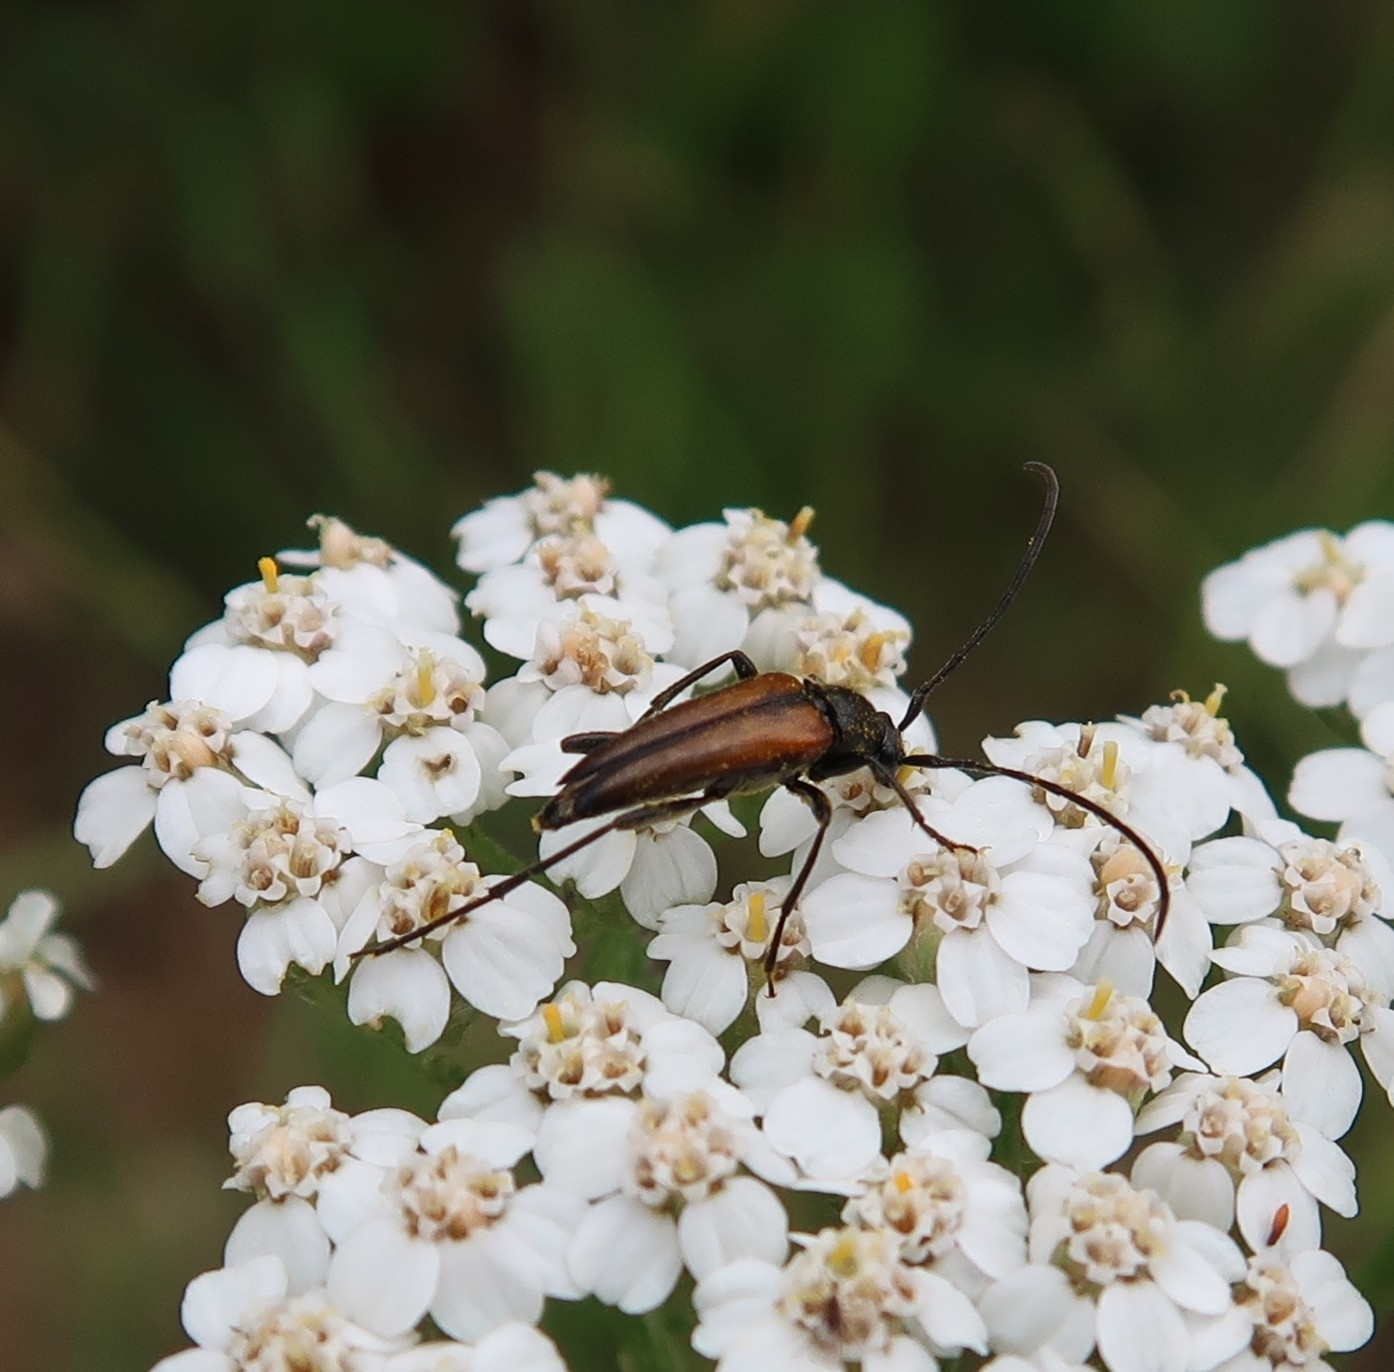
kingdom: Animalia
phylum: Arthropoda
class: Insecta
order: Coleoptera
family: Cerambycidae
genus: Stenurella
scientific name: Stenurella melanura
